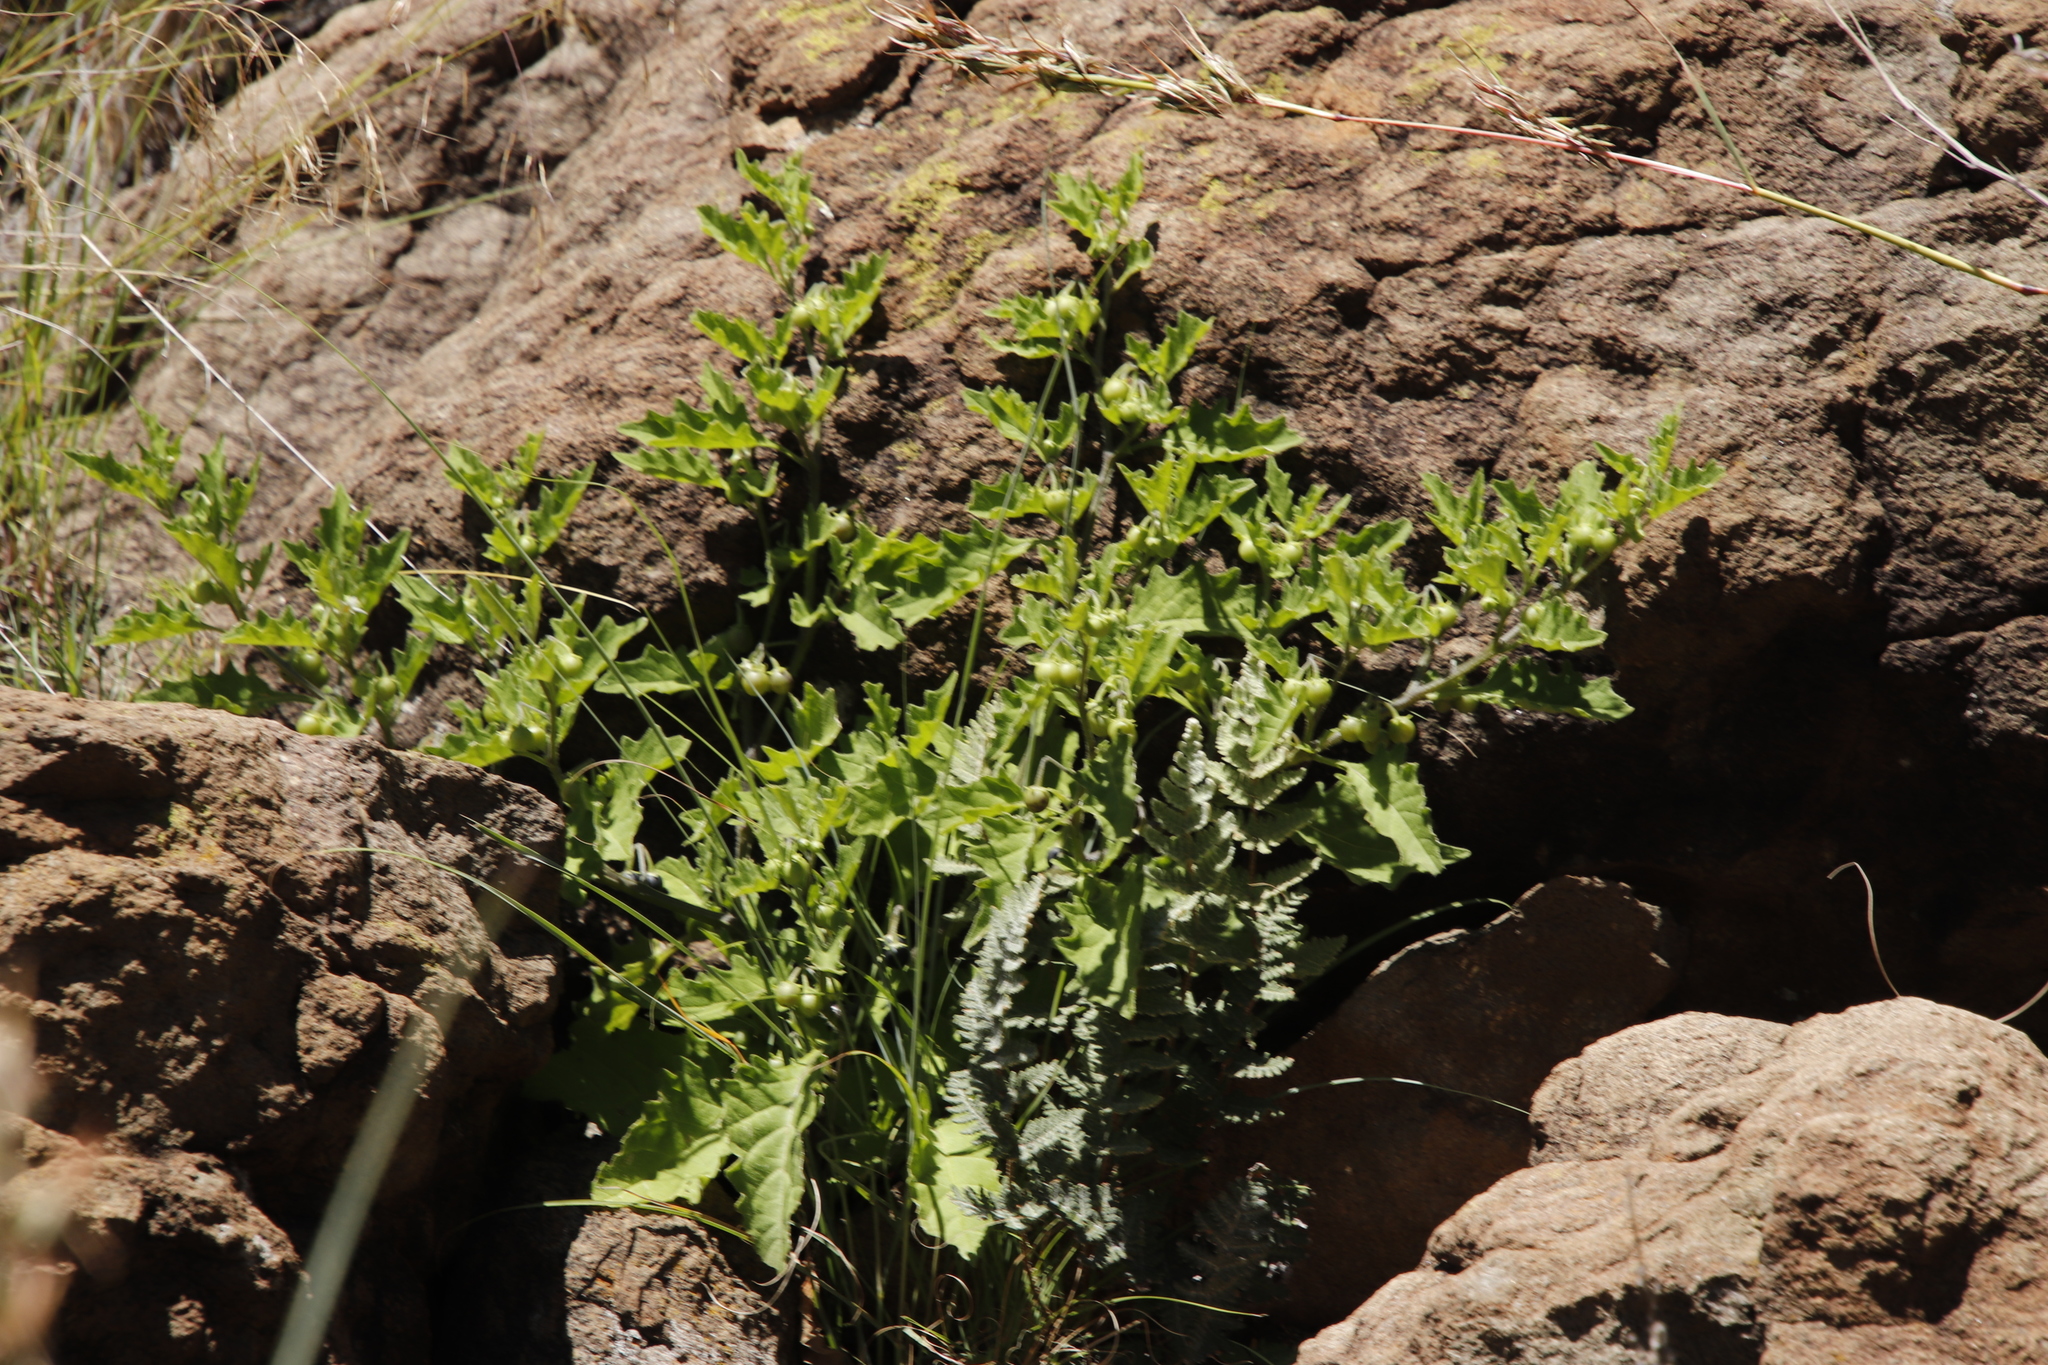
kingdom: Plantae
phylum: Tracheophyta
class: Magnoliopsida
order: Solanales
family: Solanaceae
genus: Solanum
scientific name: Solanum retroflexum
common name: Wonderberry
